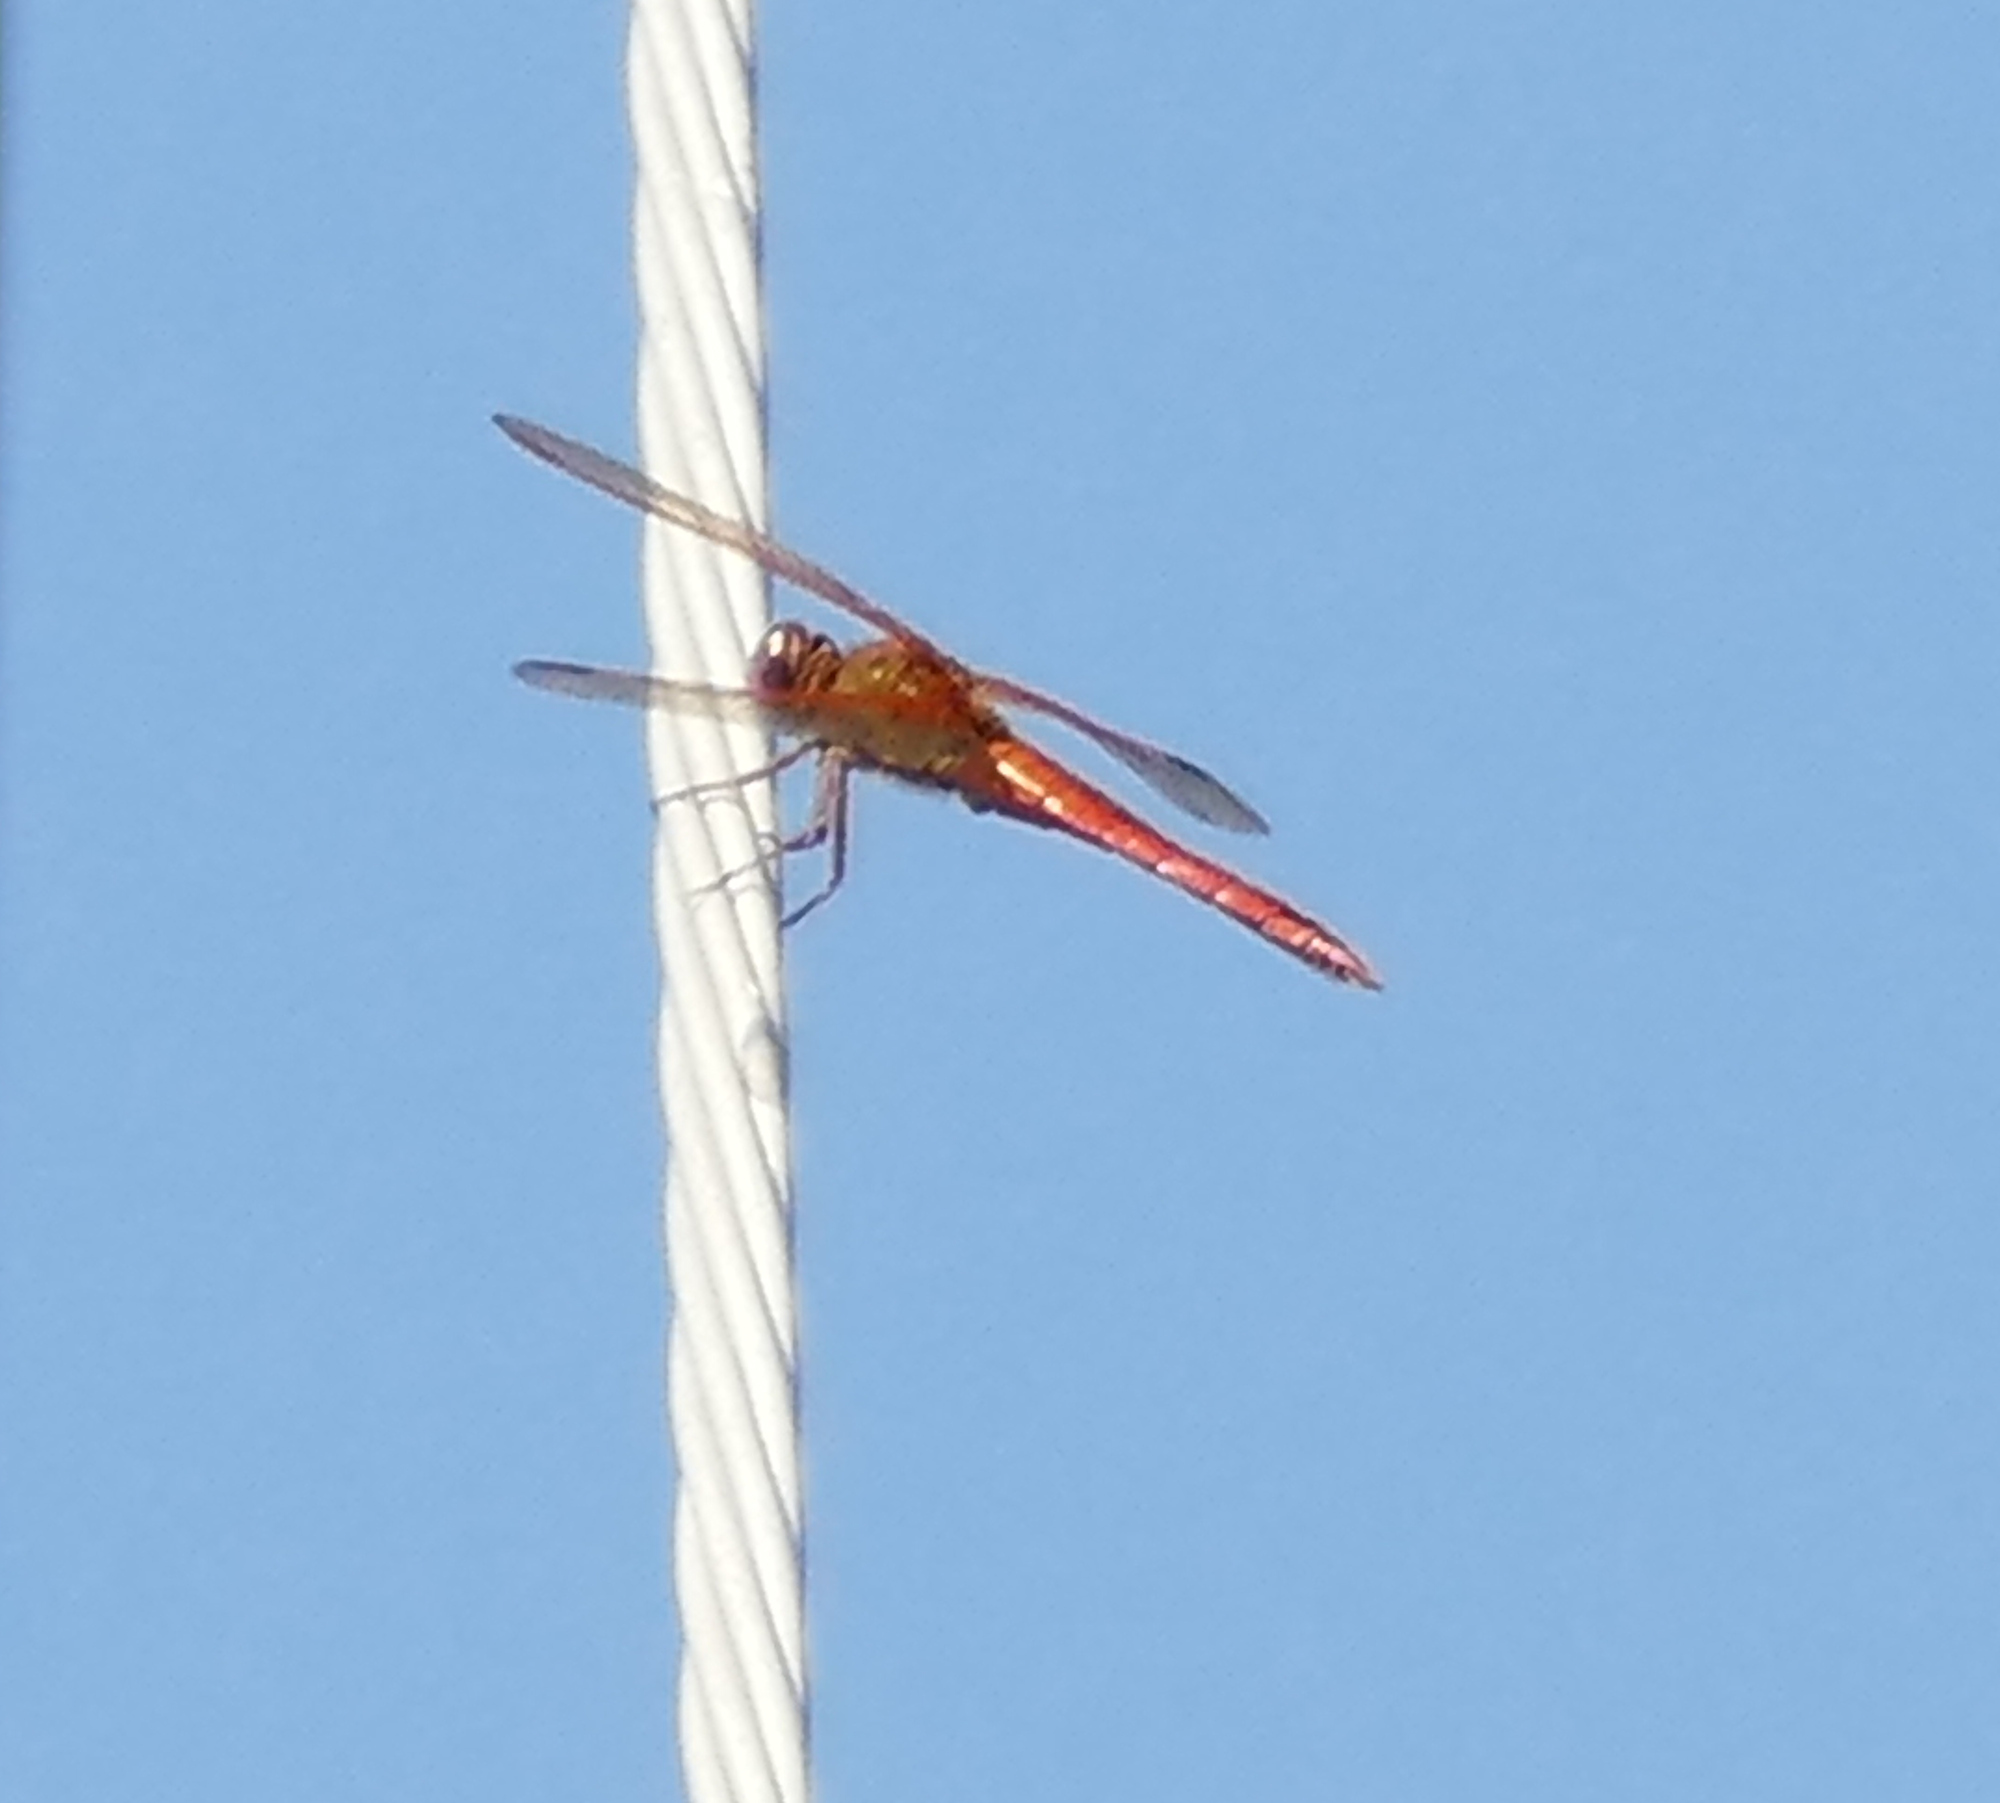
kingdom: Animalia
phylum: Arthropoda
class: Insecta
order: Odonata
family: Libellulidae
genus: Libellula
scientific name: Libellula needhami
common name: Needham's skimmer
